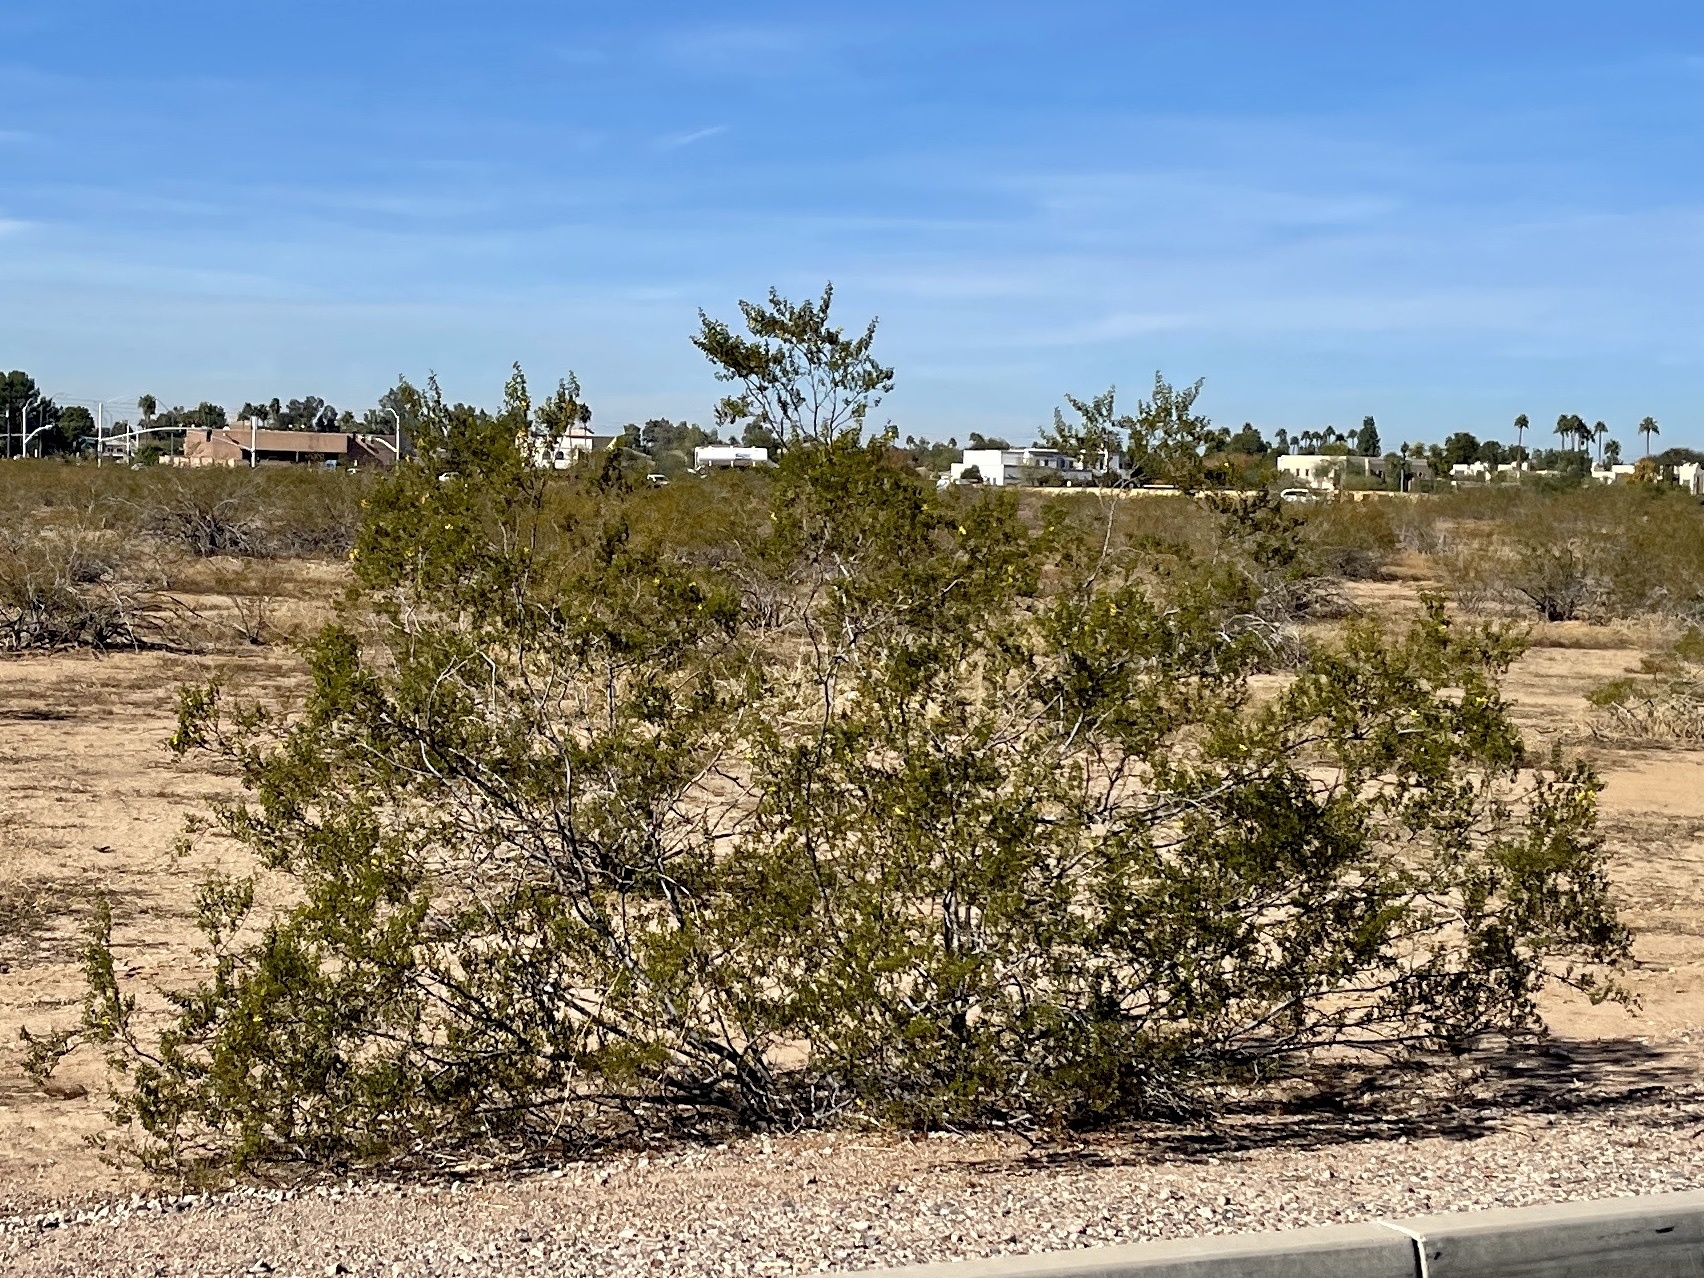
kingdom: Plantae
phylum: Tracheophyta
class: Magnoliopsida
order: Zygophyllales
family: Zygophyllaceae
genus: Larrea
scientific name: Larrea tridentata
